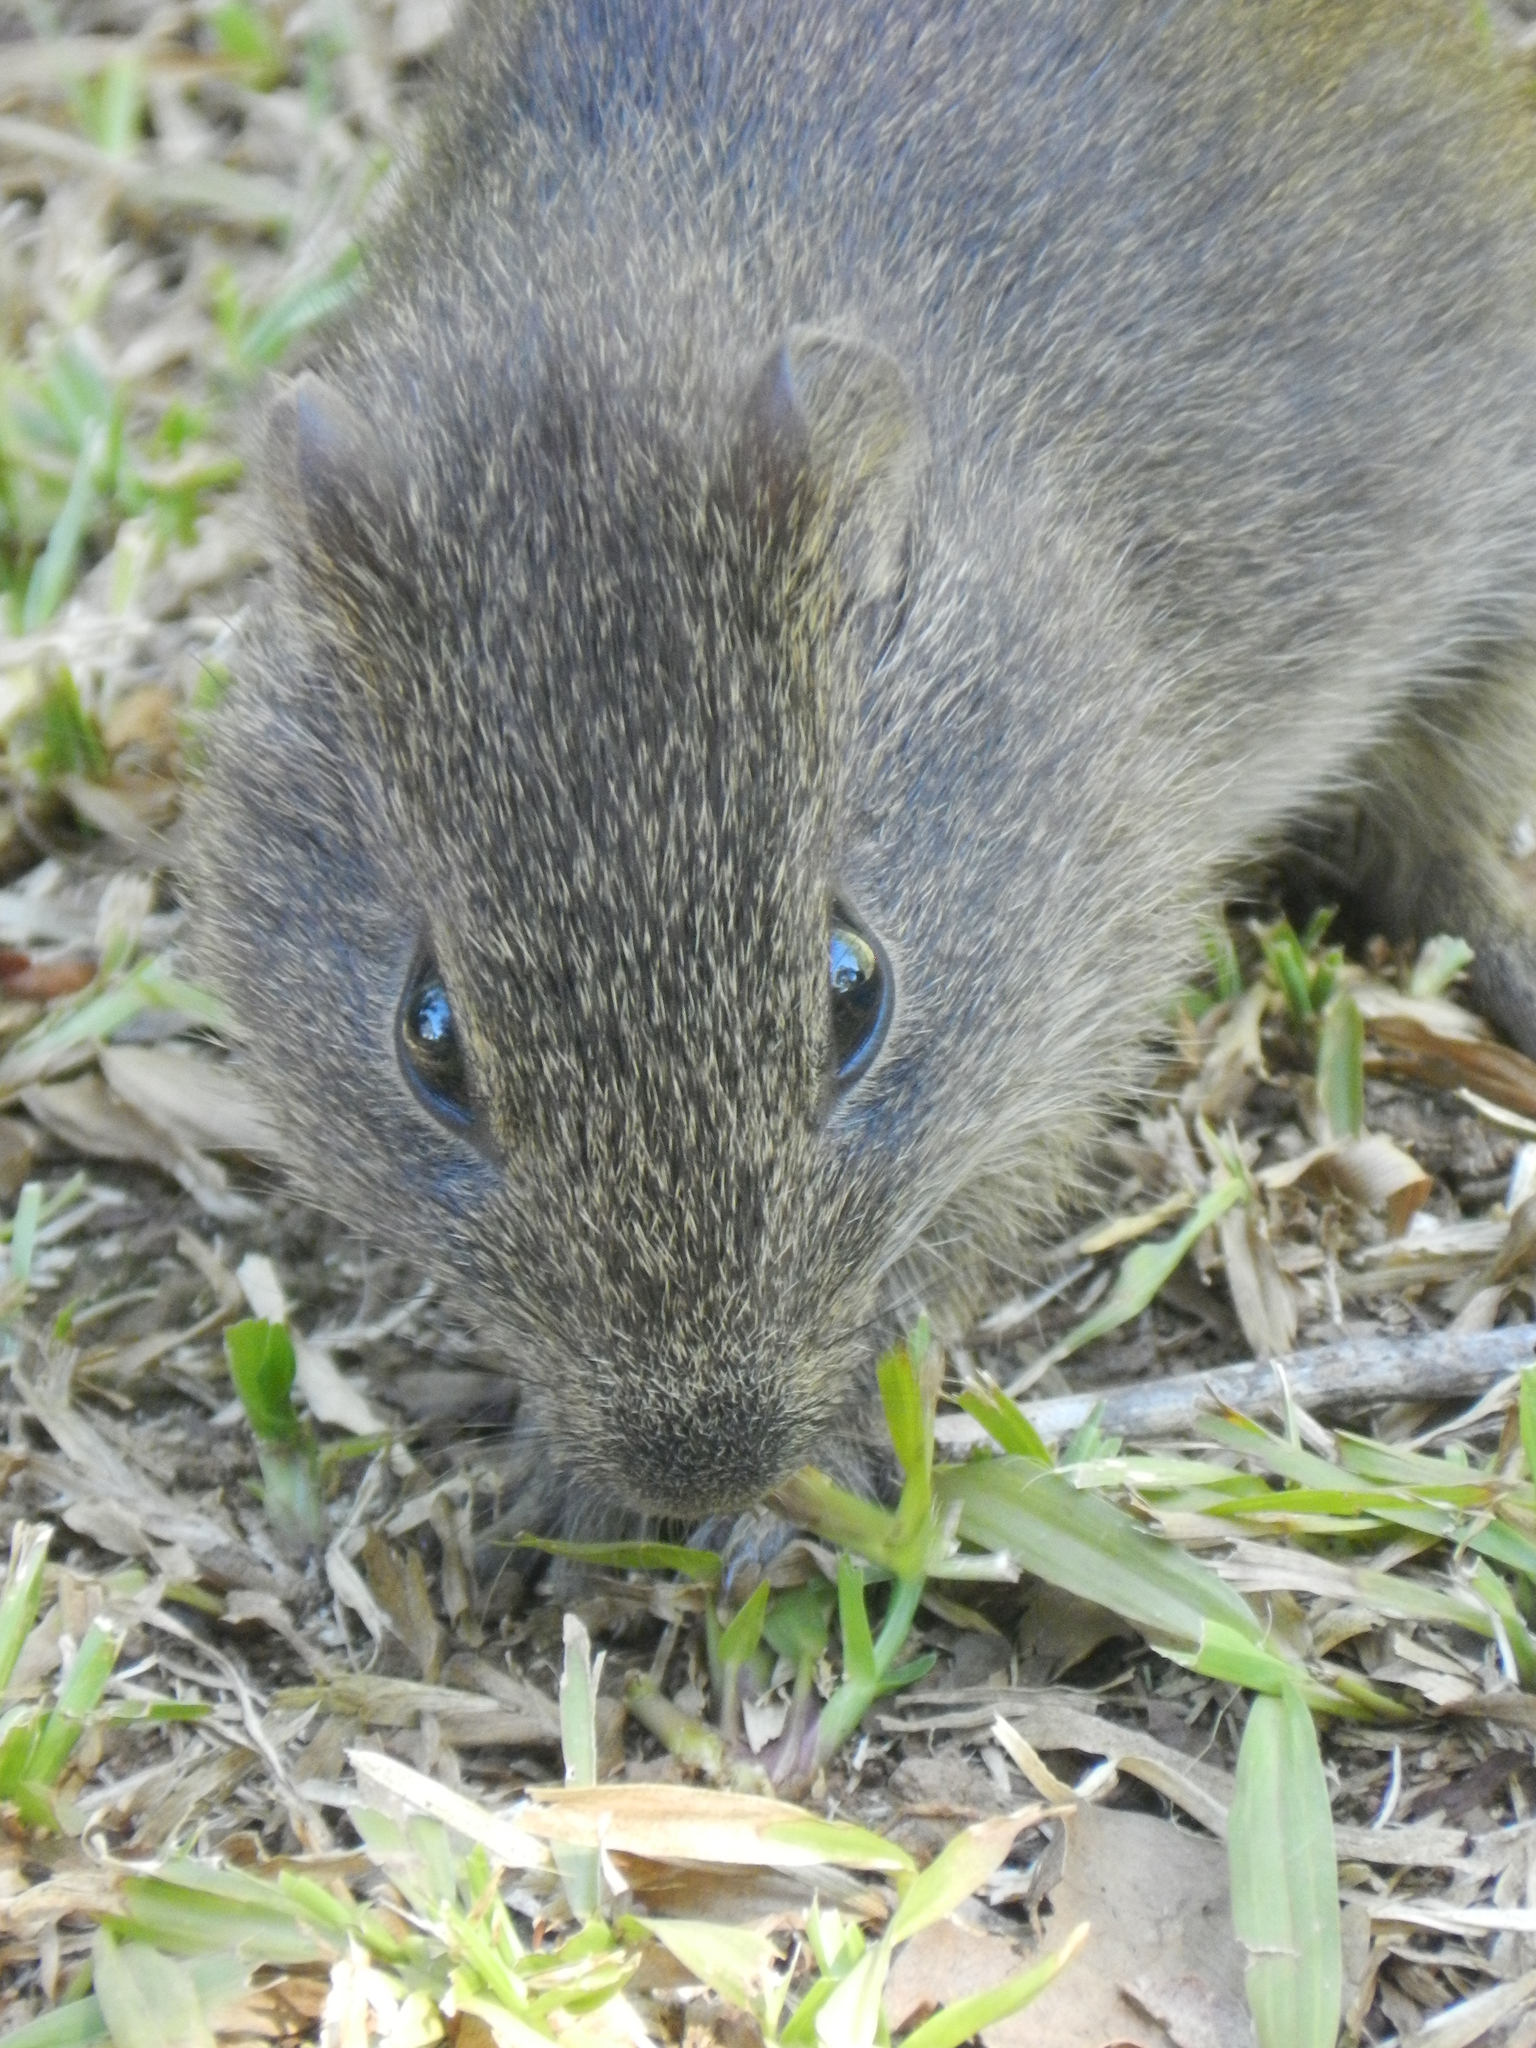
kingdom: Animalia
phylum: Chordata
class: Mammalia
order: Rodentia
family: Caviidae
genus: Cavia
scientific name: Cavia aperea
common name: Brazilian guinea pig
